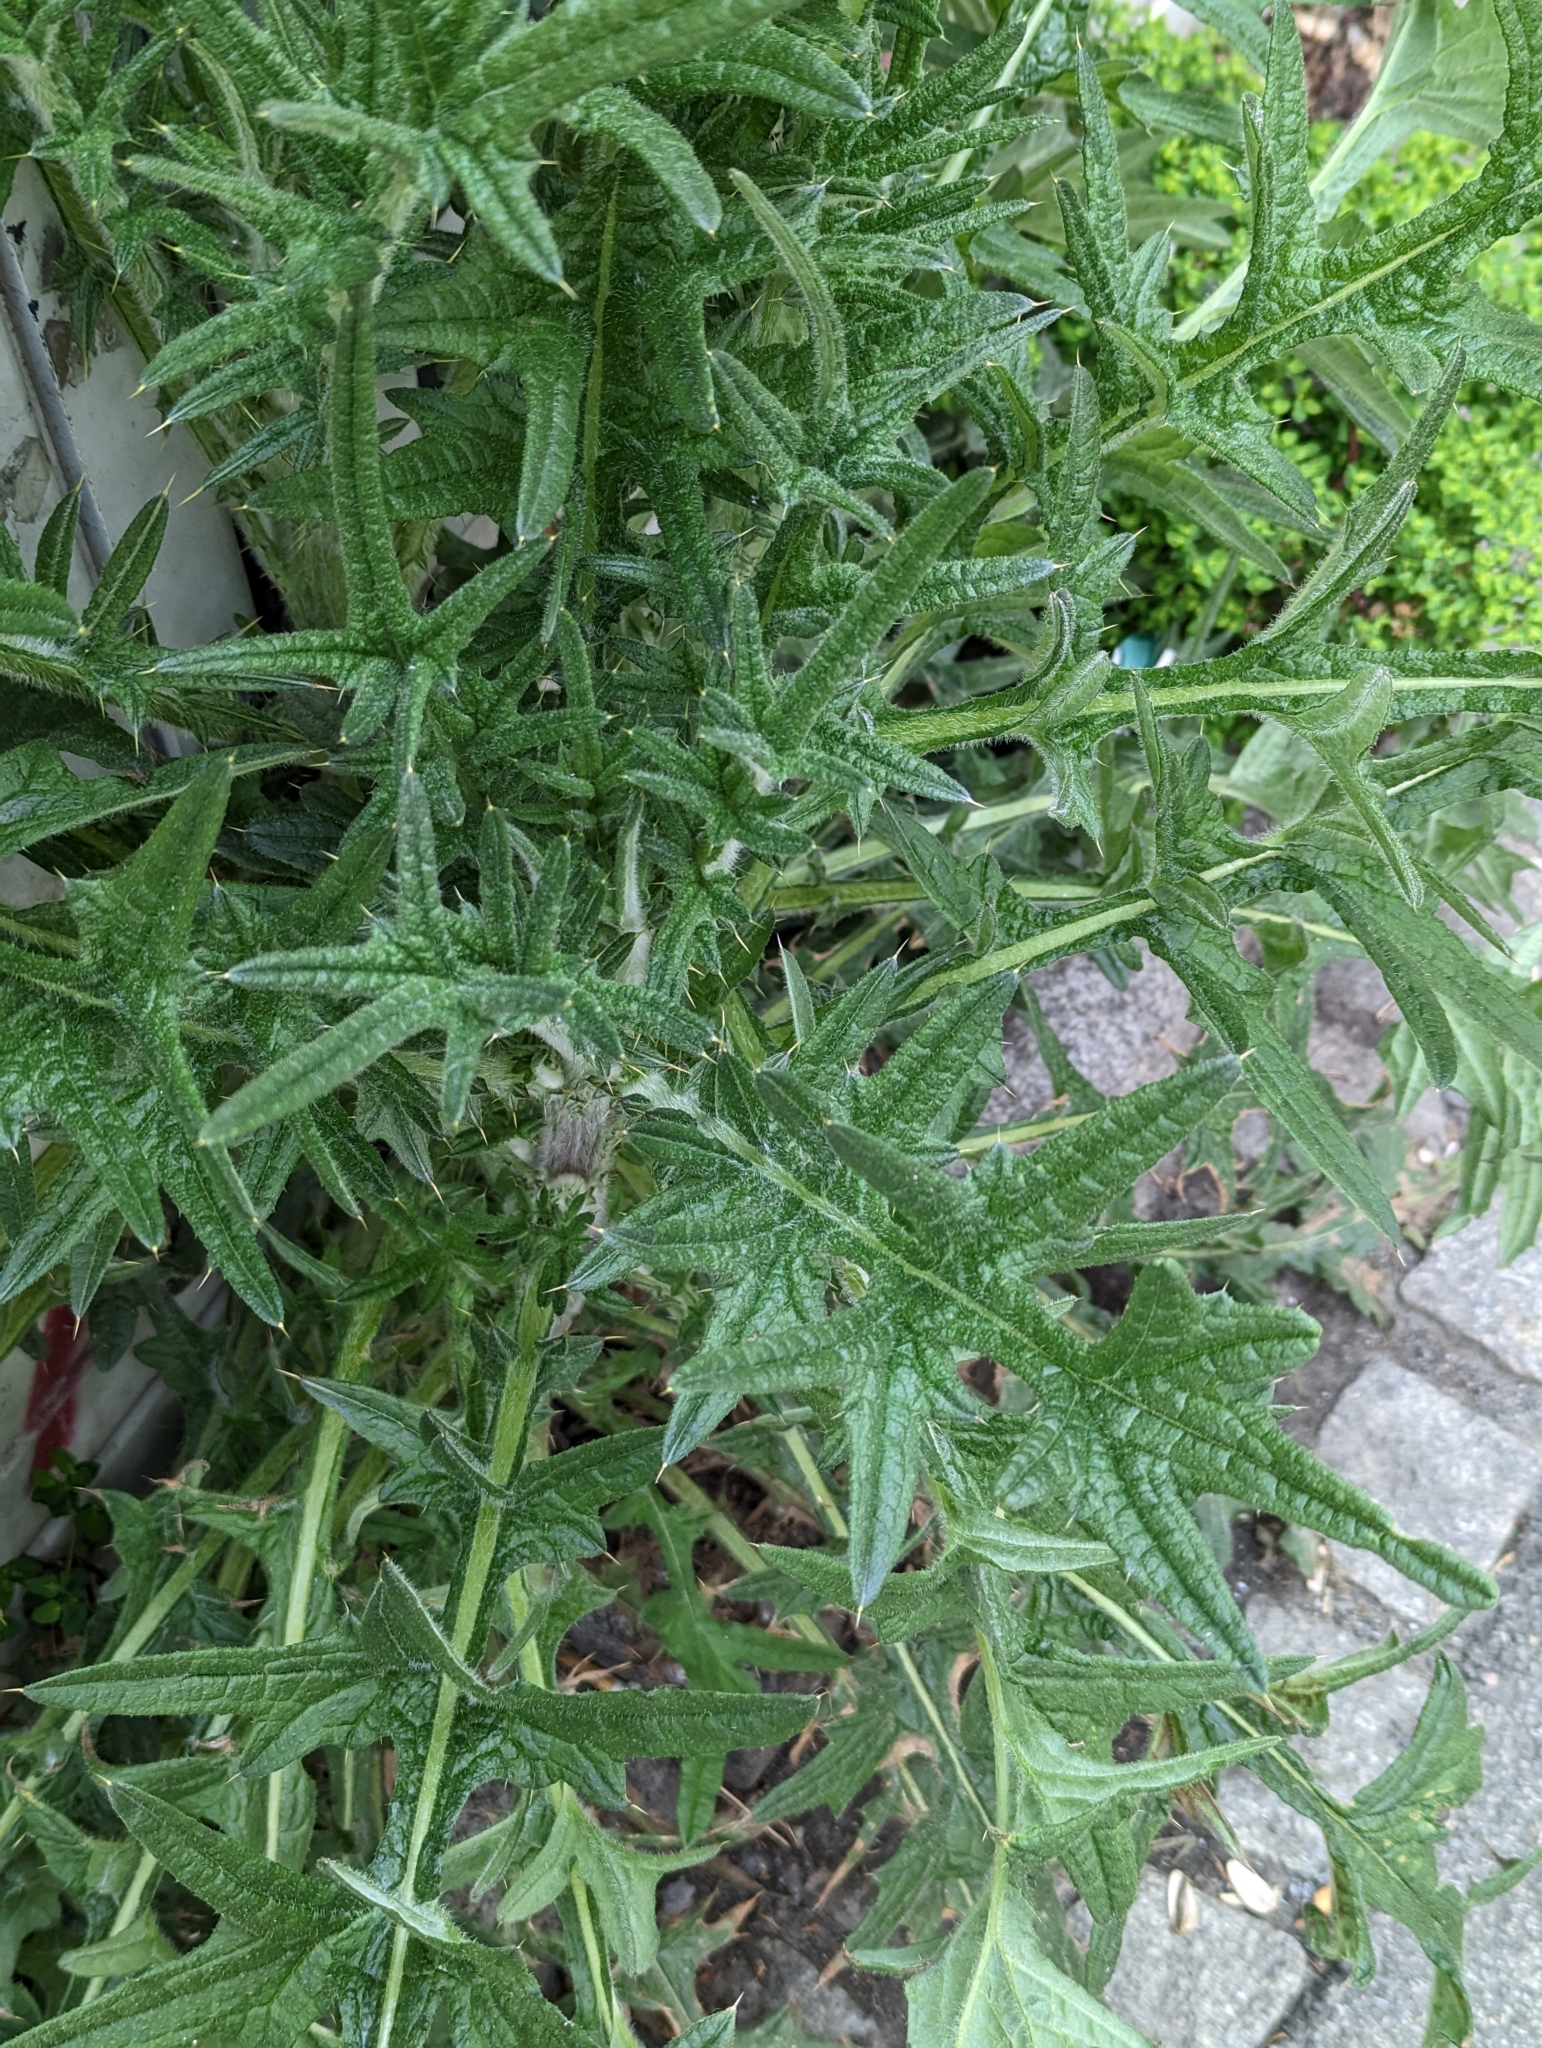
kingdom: Plantae
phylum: Tracheophyta
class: Magnoliopsida
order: Asterales
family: Asteraceae
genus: Cirsium
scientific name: Cirsium vulgare
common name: Bull thistle
